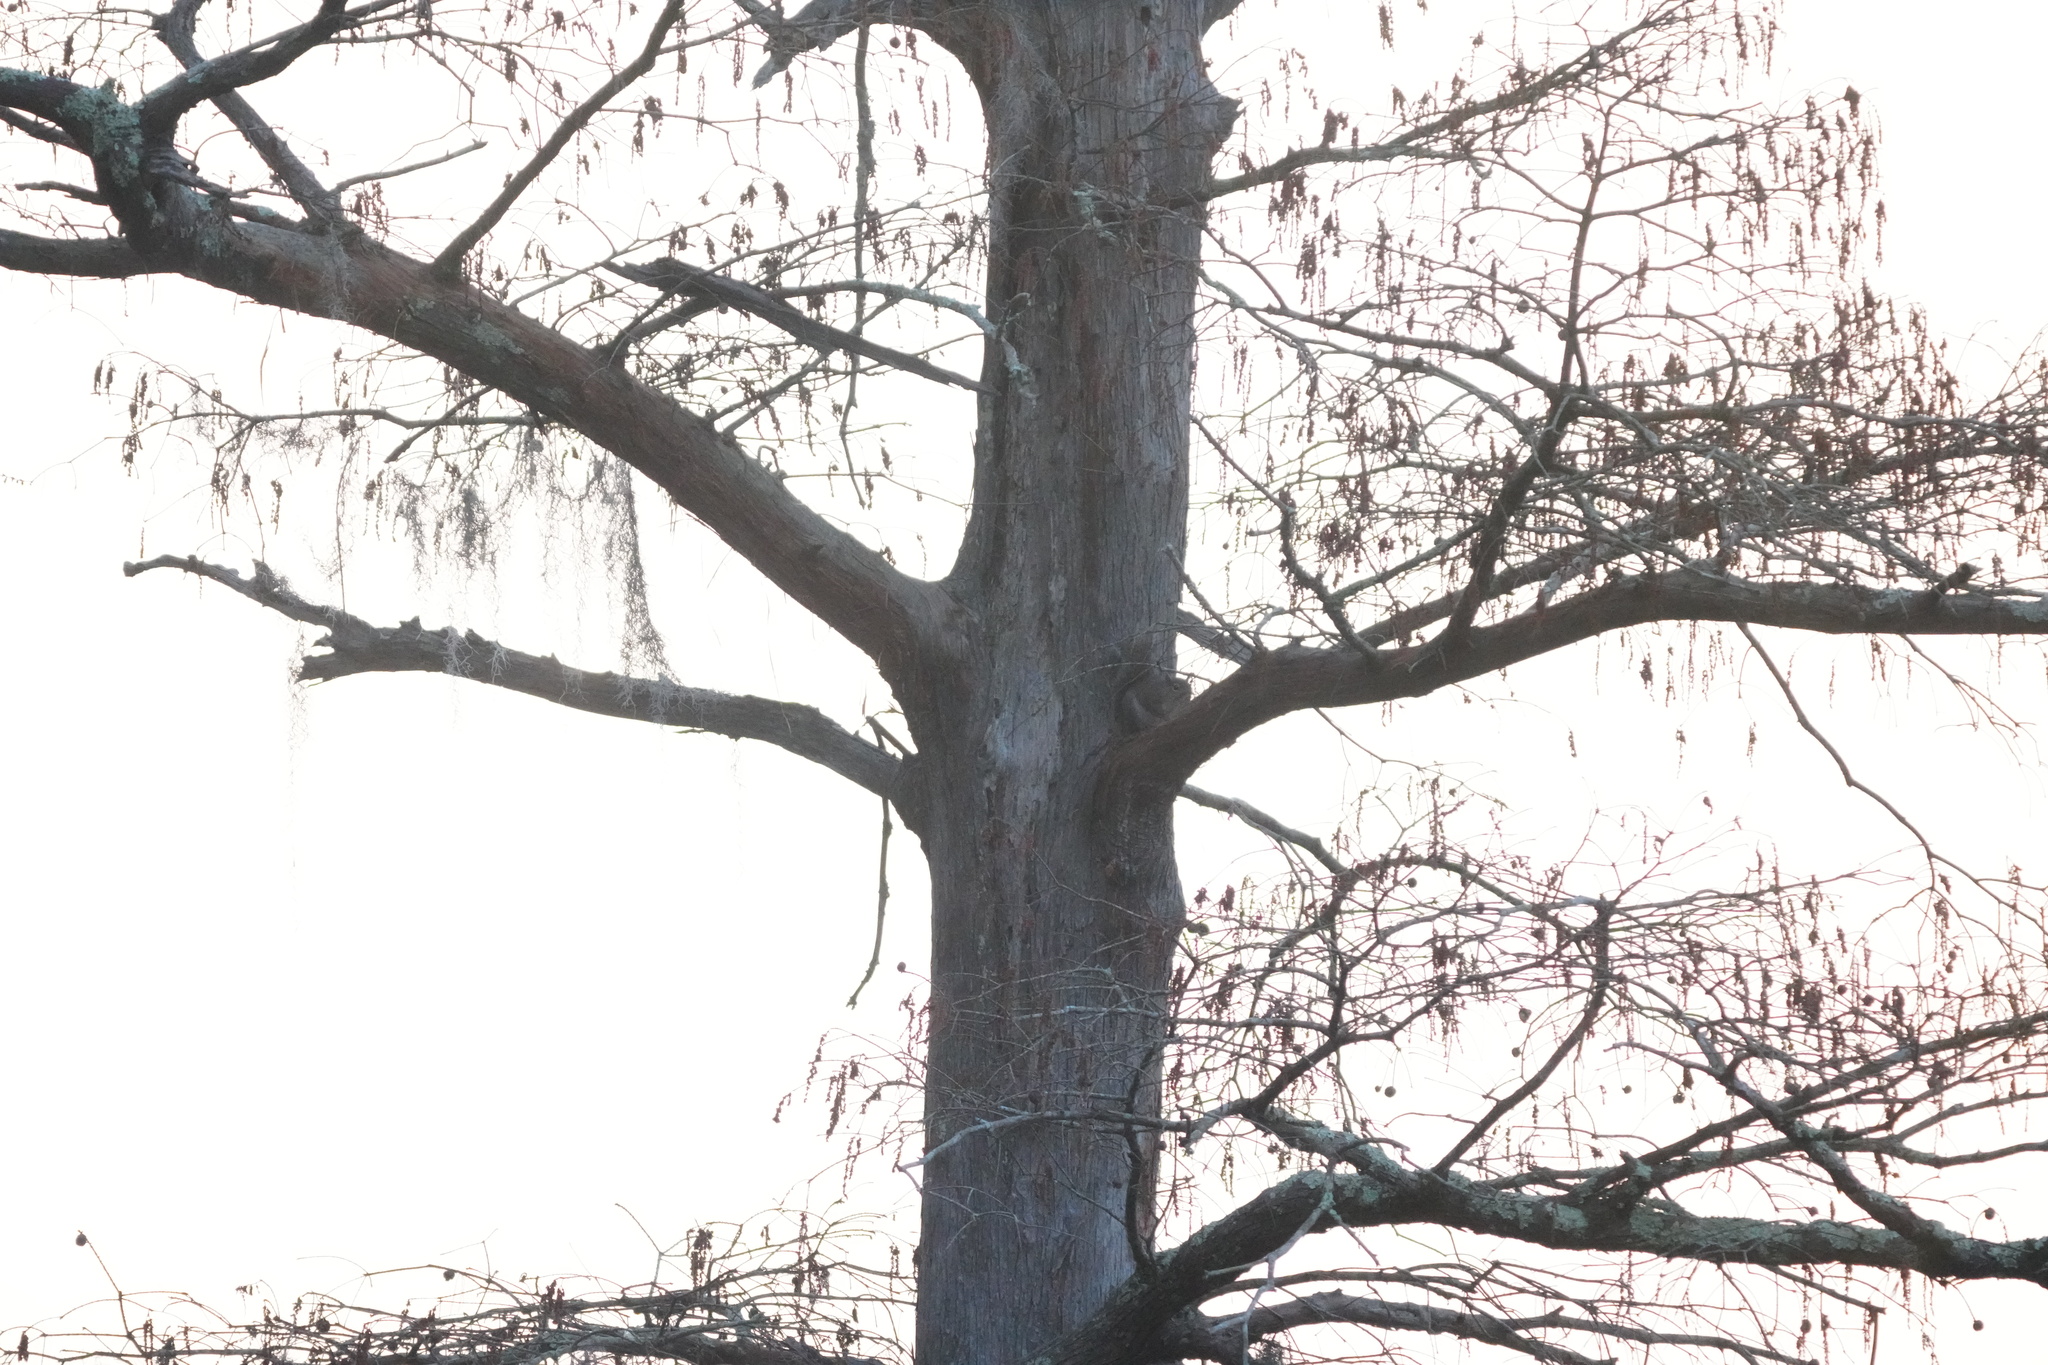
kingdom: Animalia
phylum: Chordata
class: Mammalia
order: Rodentia
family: Sciuridae
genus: Sciurus
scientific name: Sciurus carolinensis
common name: Eastern gray squirrel
